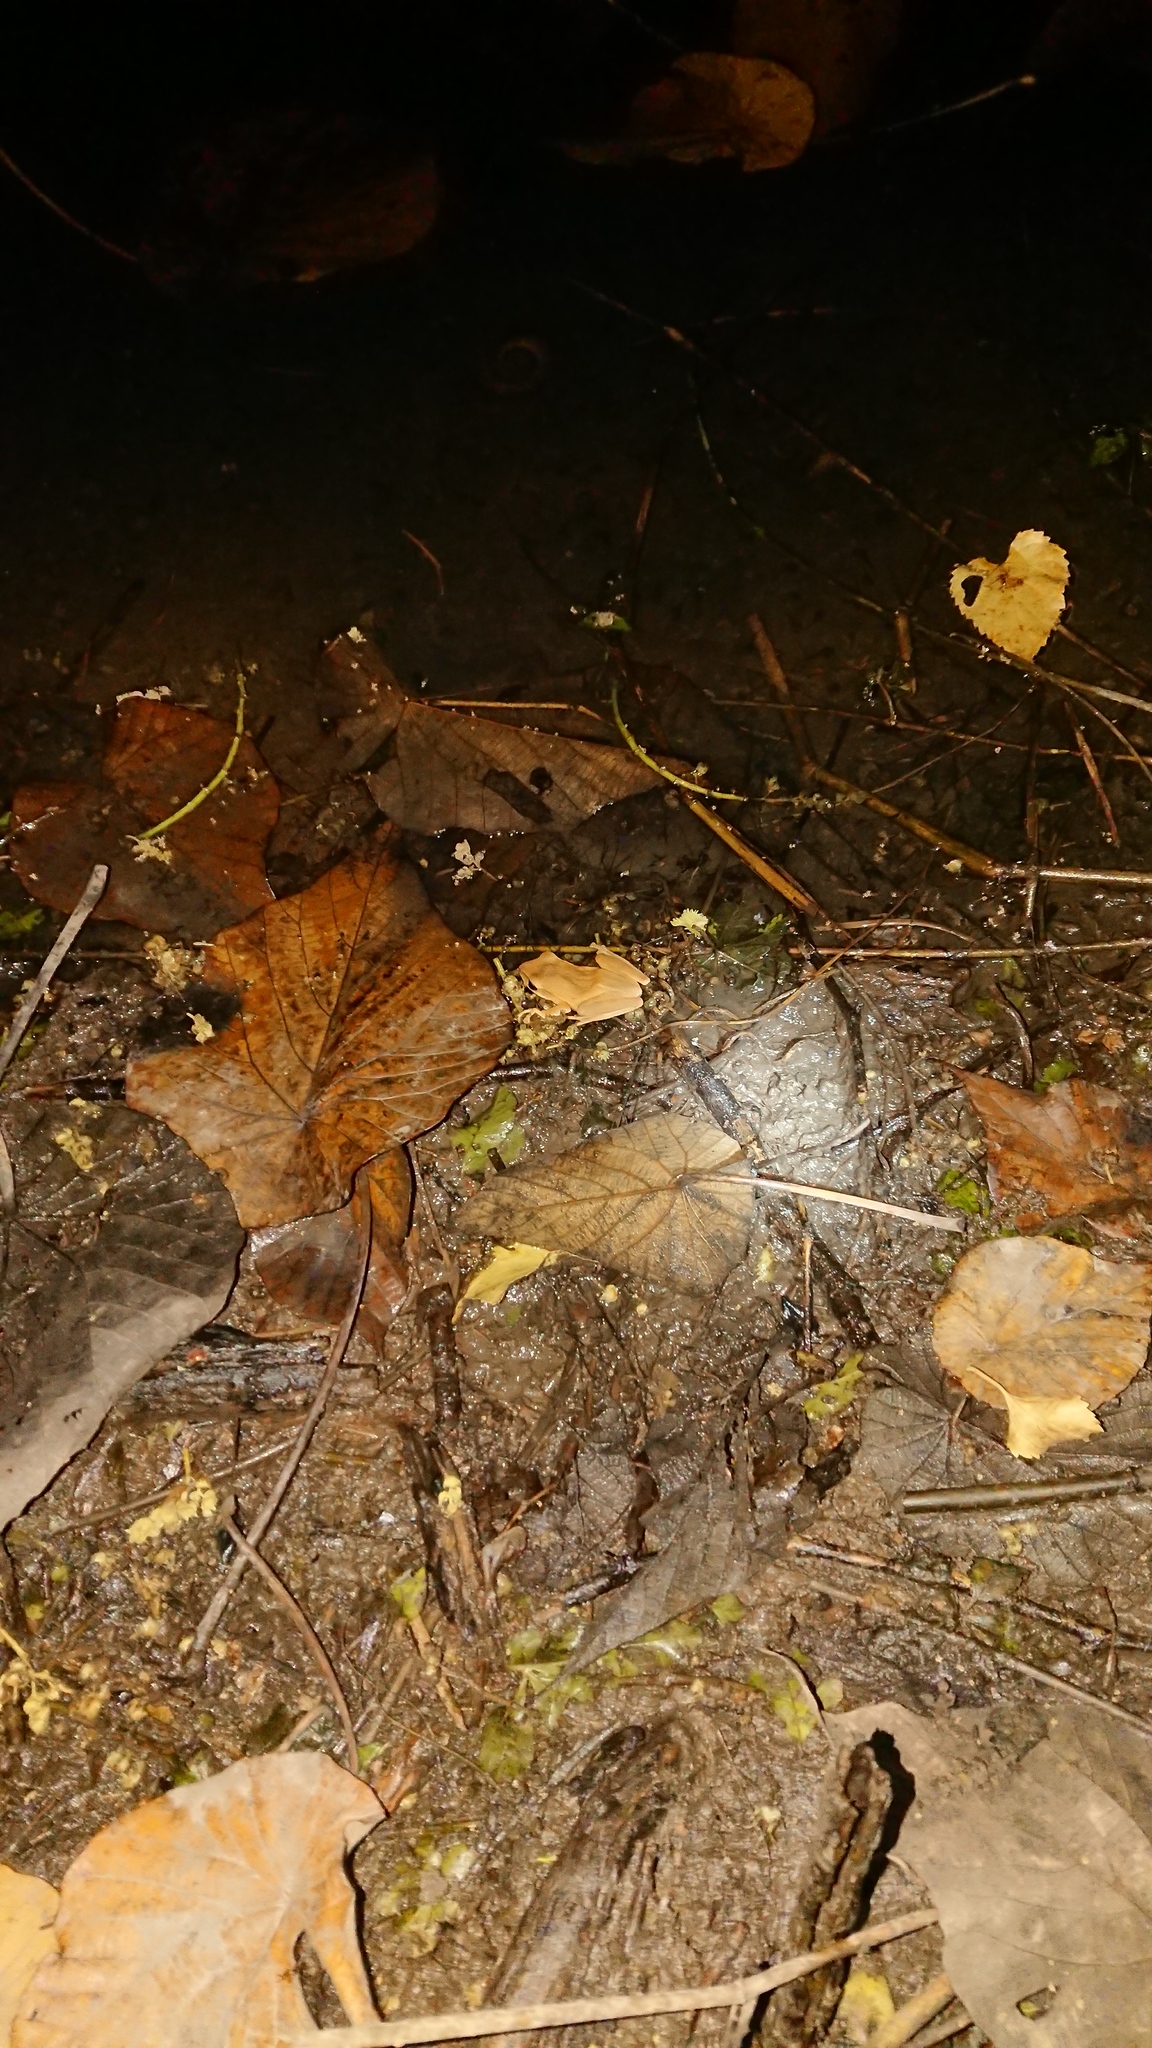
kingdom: Animalia
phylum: Chordata
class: Amphibia
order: Anura
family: Rhacophoridae
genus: Polypedates
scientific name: Polypedates megacephalus
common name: Hong kong whipping frog
